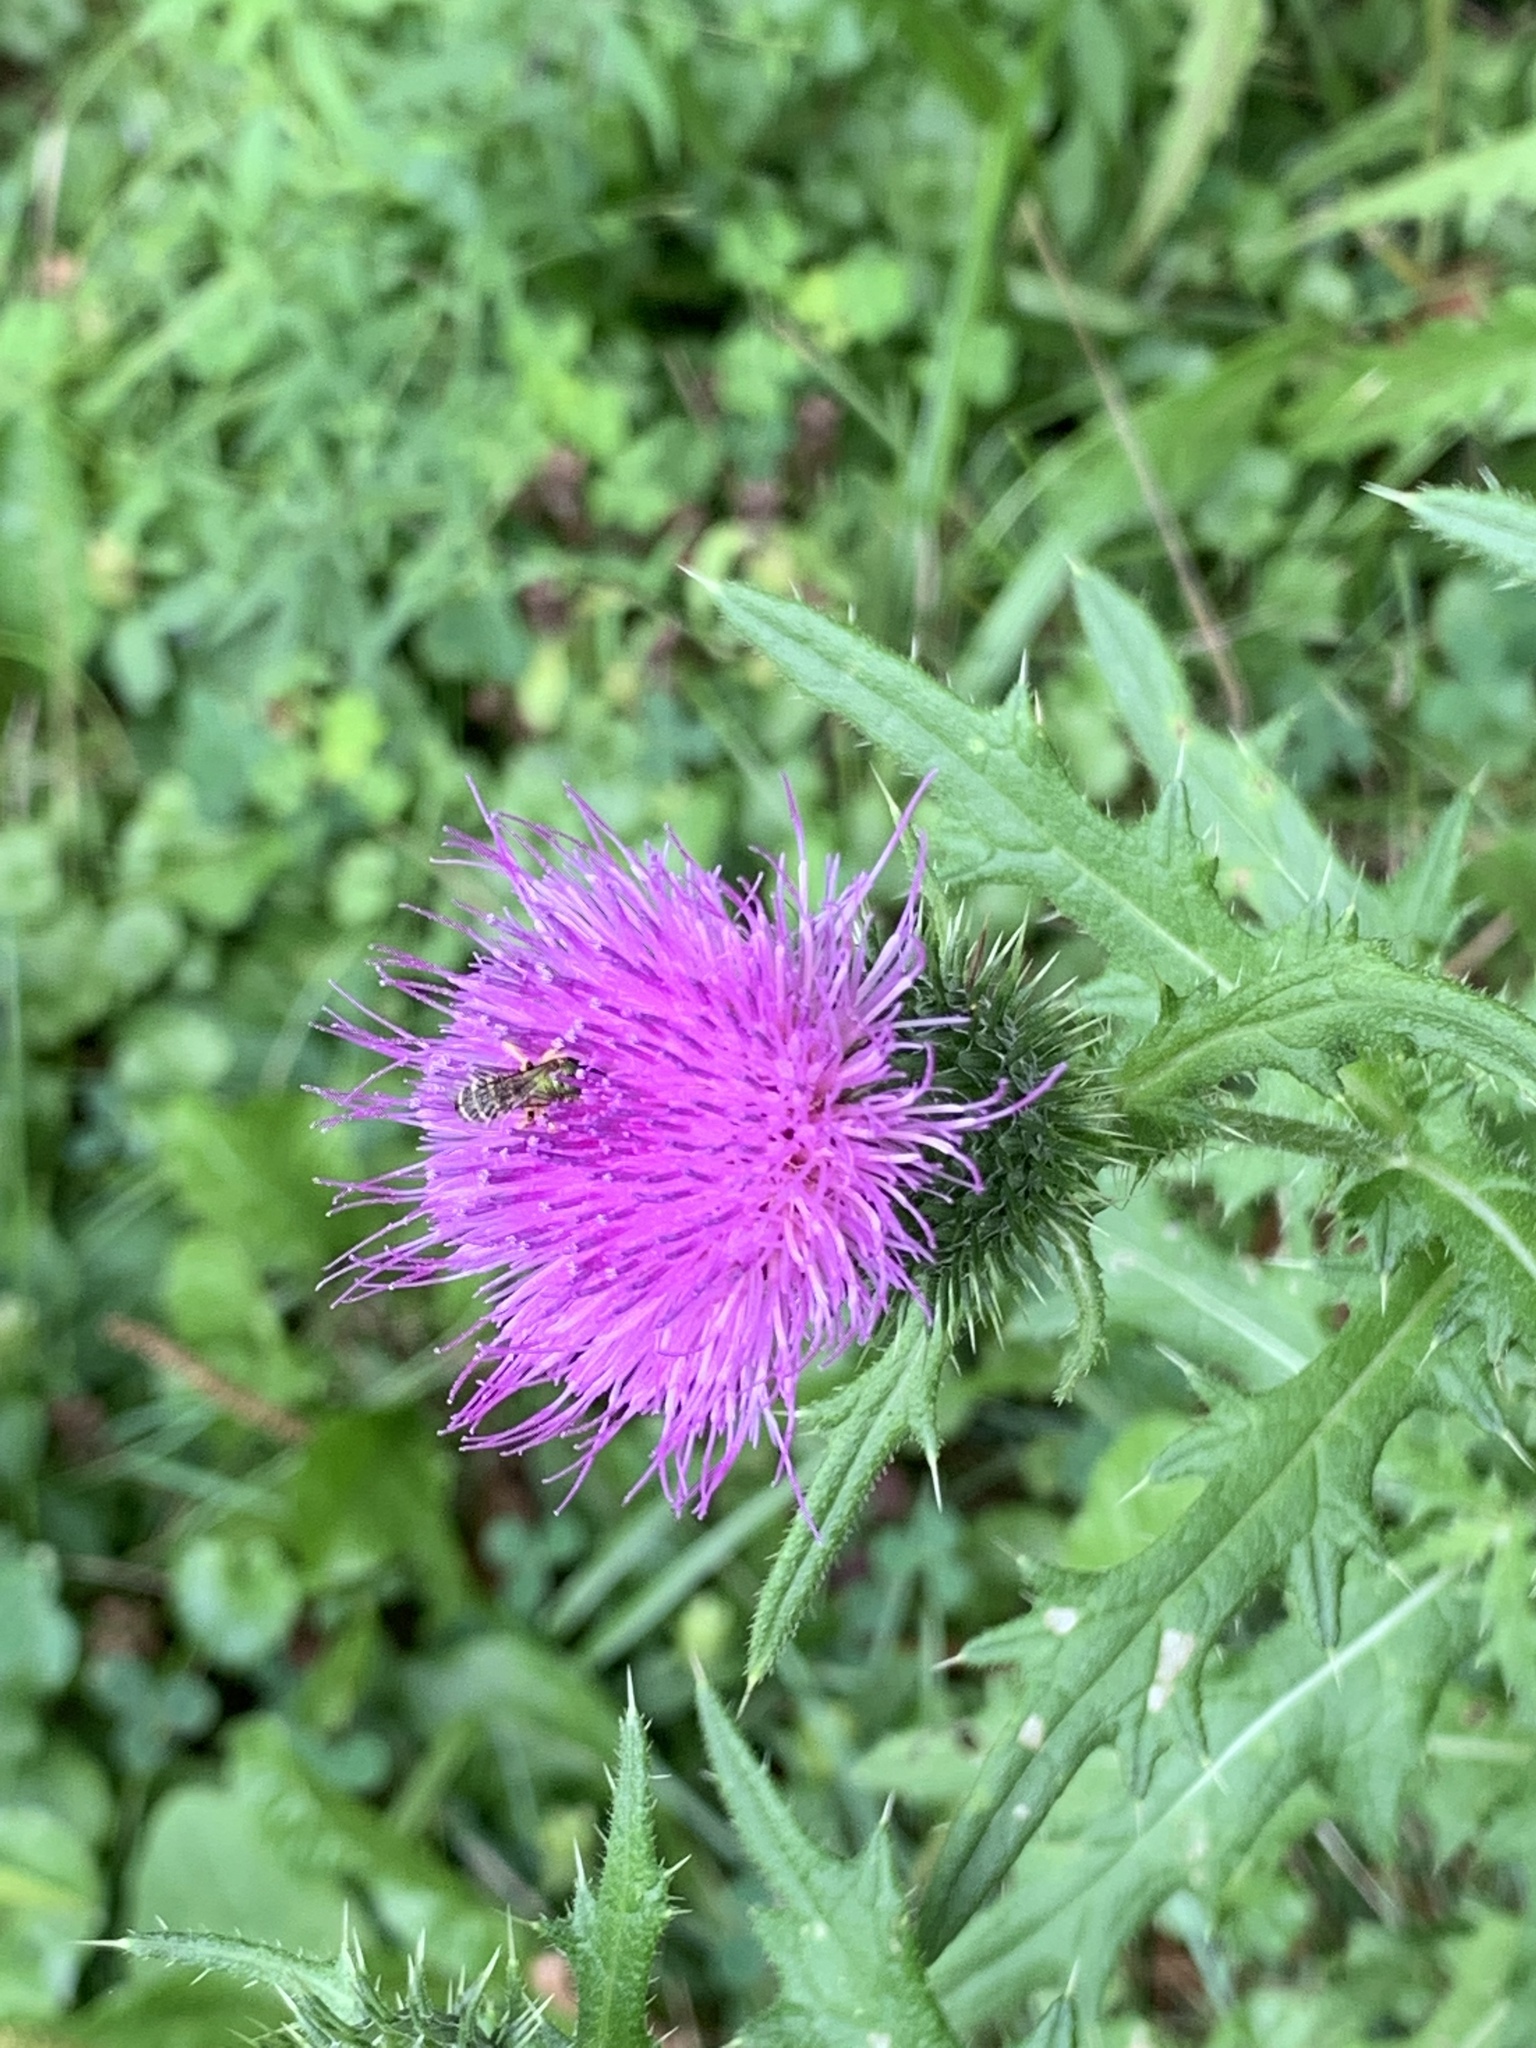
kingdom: Plantae
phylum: Tracheophyta
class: Magnoliopsida
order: Asterales
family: Asteraceae
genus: Cirsium
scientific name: Cirsium vulgare
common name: Bull thistle
